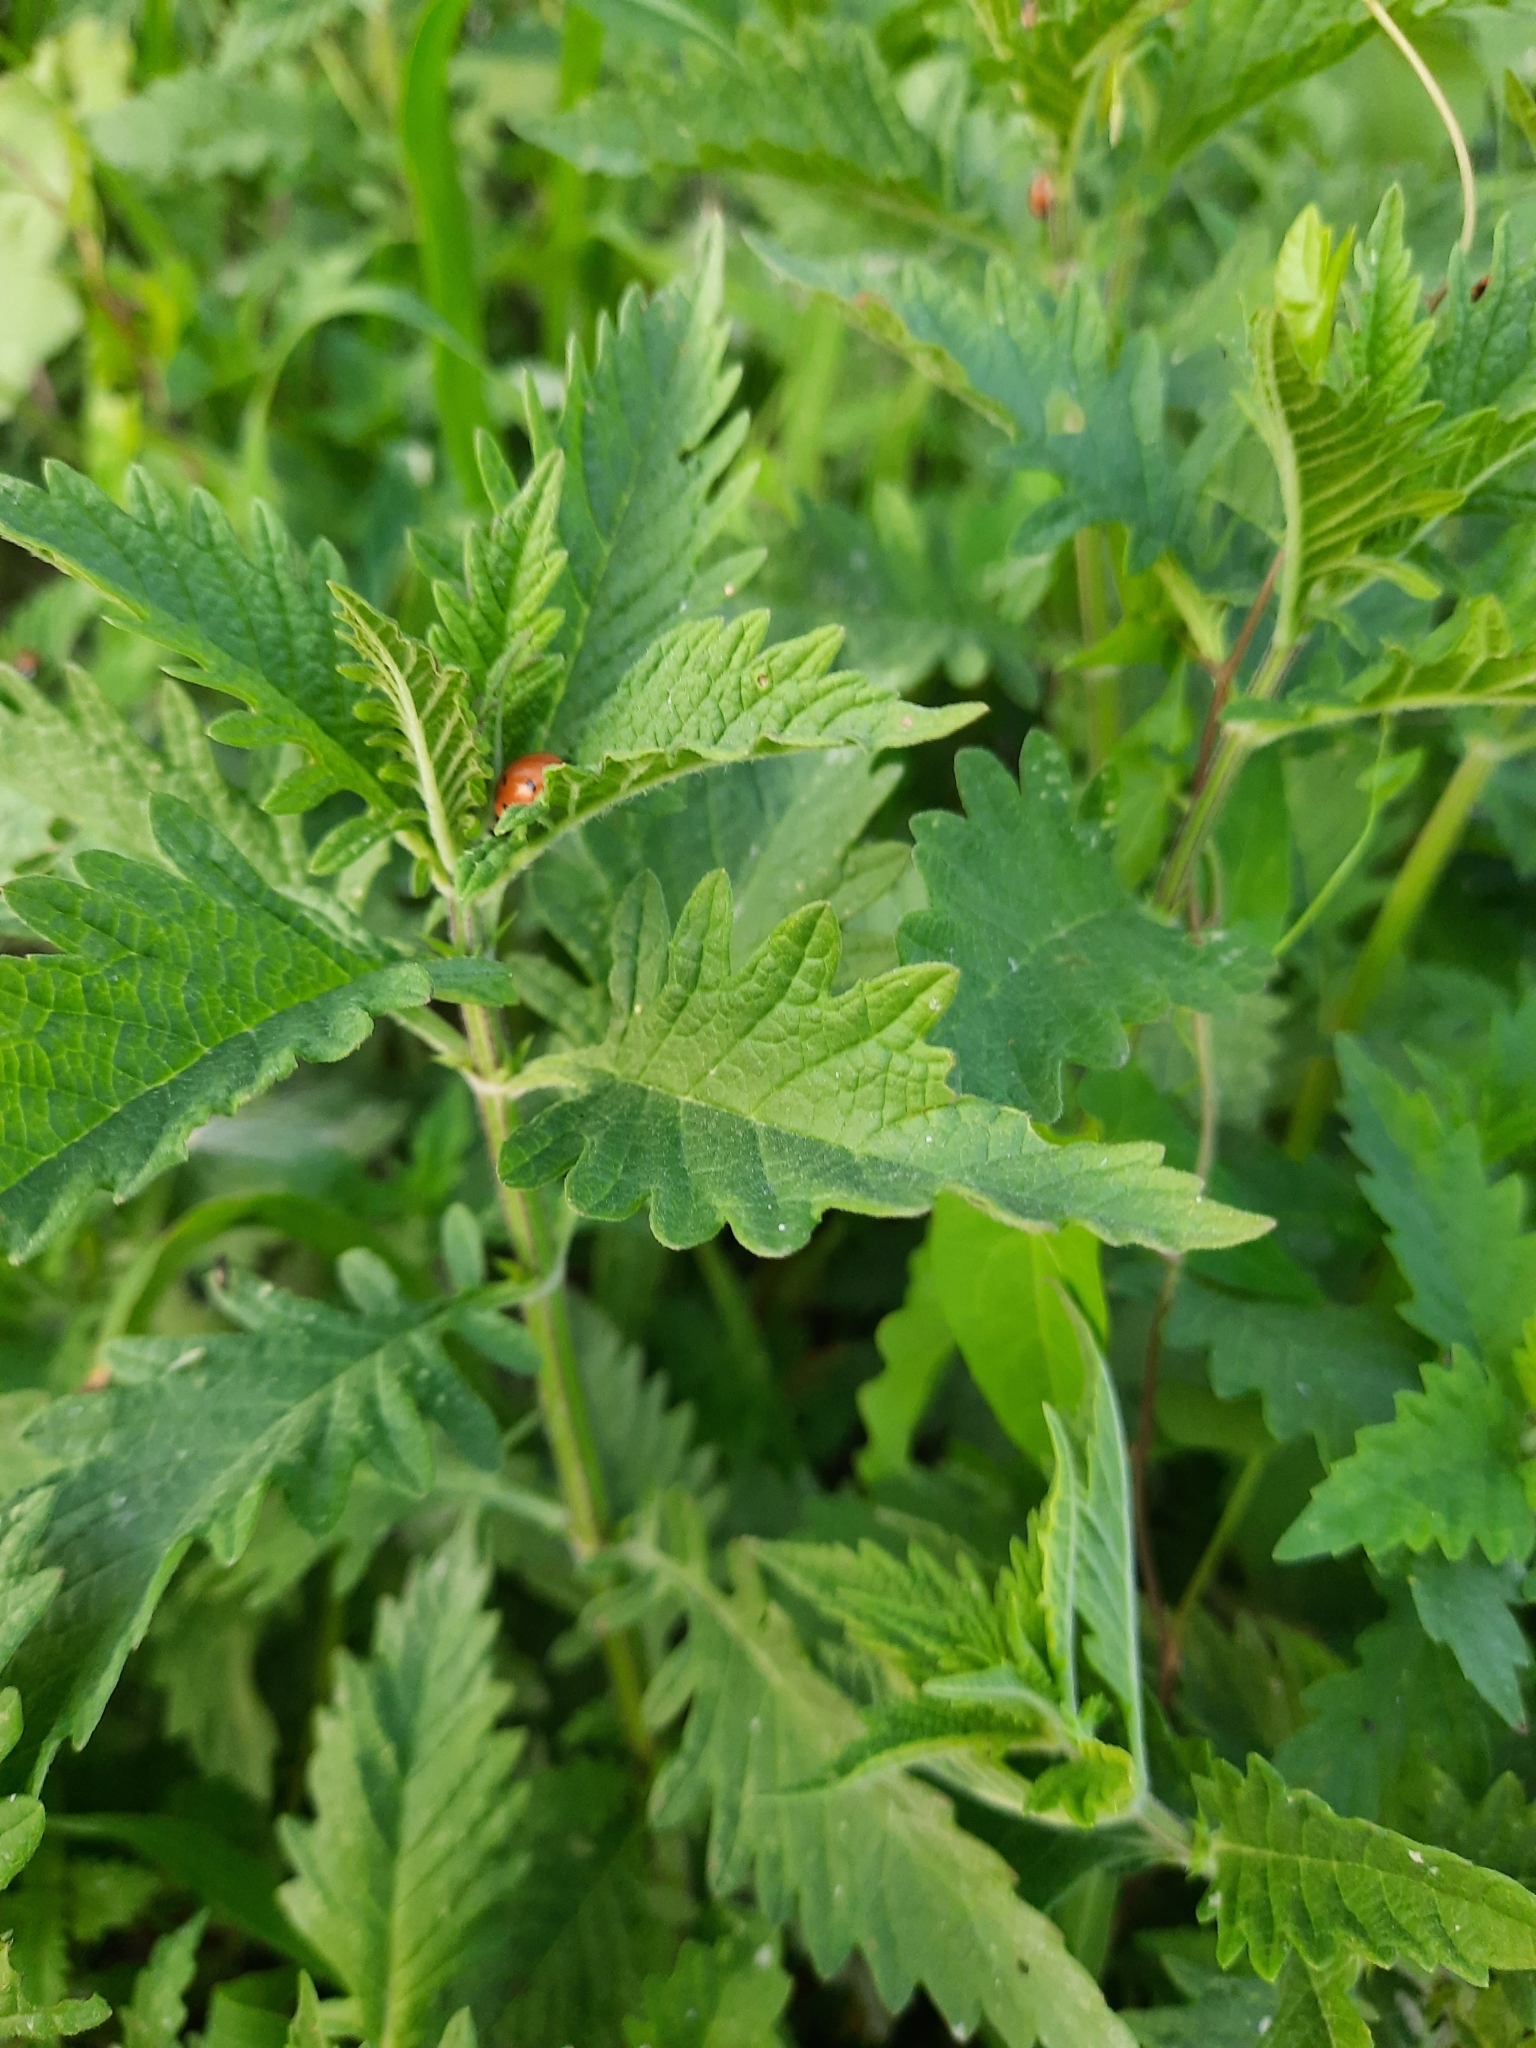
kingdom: Plantae
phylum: Tracheophyta
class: Magnoliopsida
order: Lamiales
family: Lamiaceae
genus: Lycopus
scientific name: Lycopus europaeus
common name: European bugleweed
